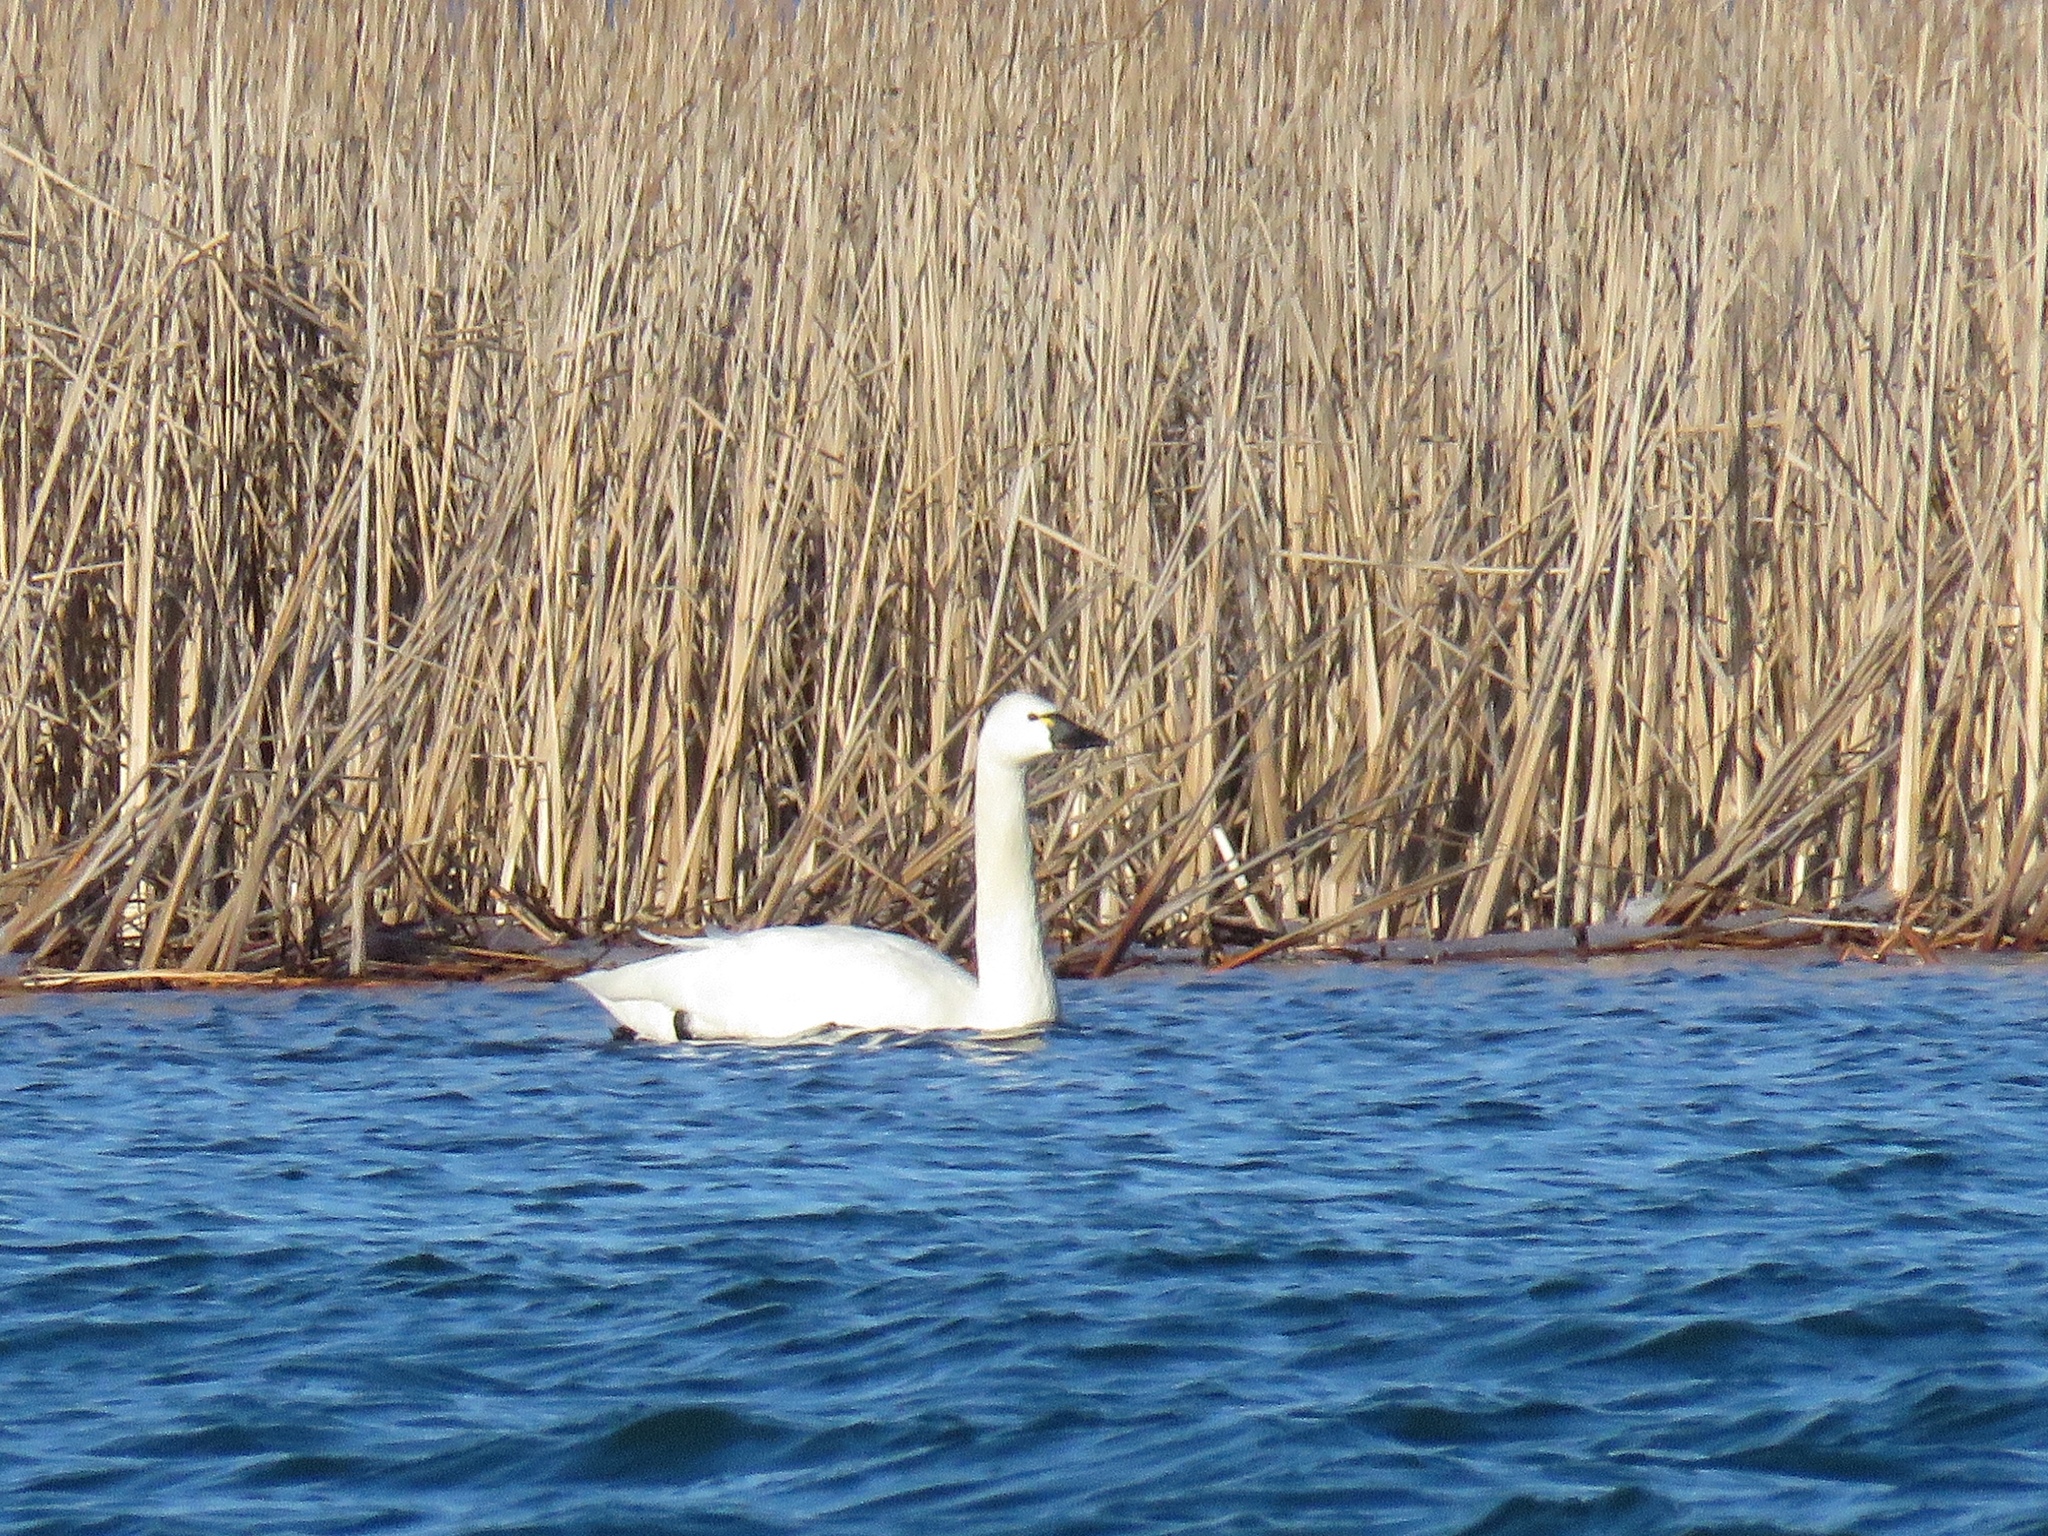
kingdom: Animalia
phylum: Chordata
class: Aves
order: Anseriformes
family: Anatidae
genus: Cygnus
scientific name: Cygnus columbianus
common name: Tundra swan
